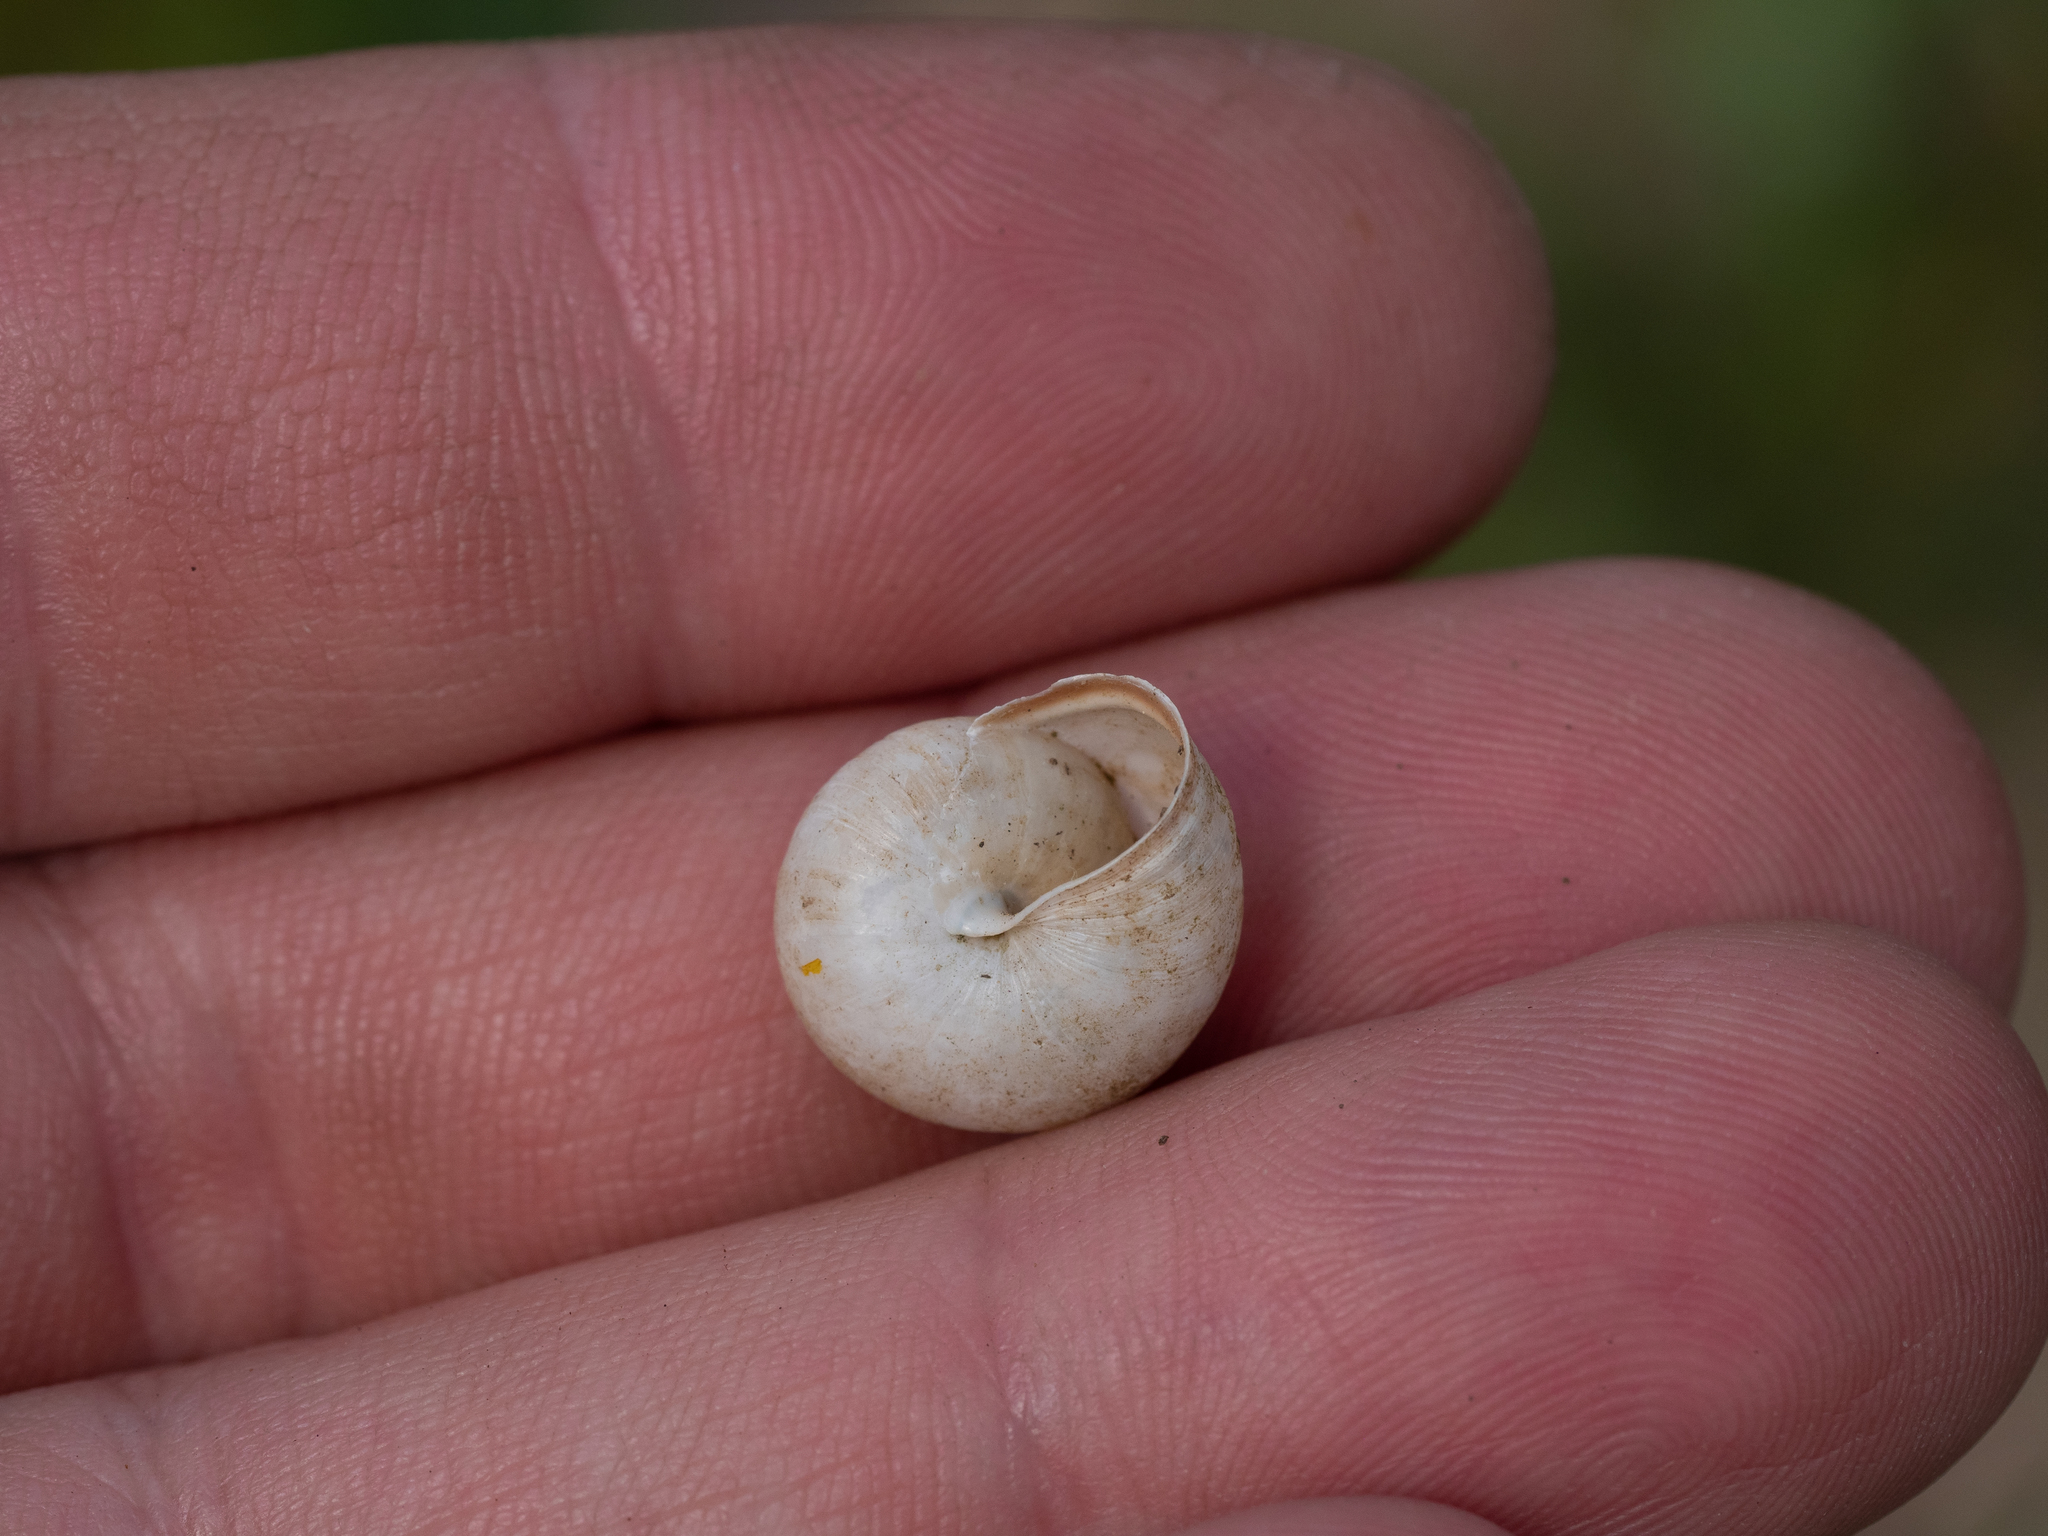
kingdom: Animalia
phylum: Mollusca
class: Gastropoda
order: Stylommatophora
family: Hygromiidae
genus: Monacha
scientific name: Monacha cartusiana
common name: Carthusian snail
